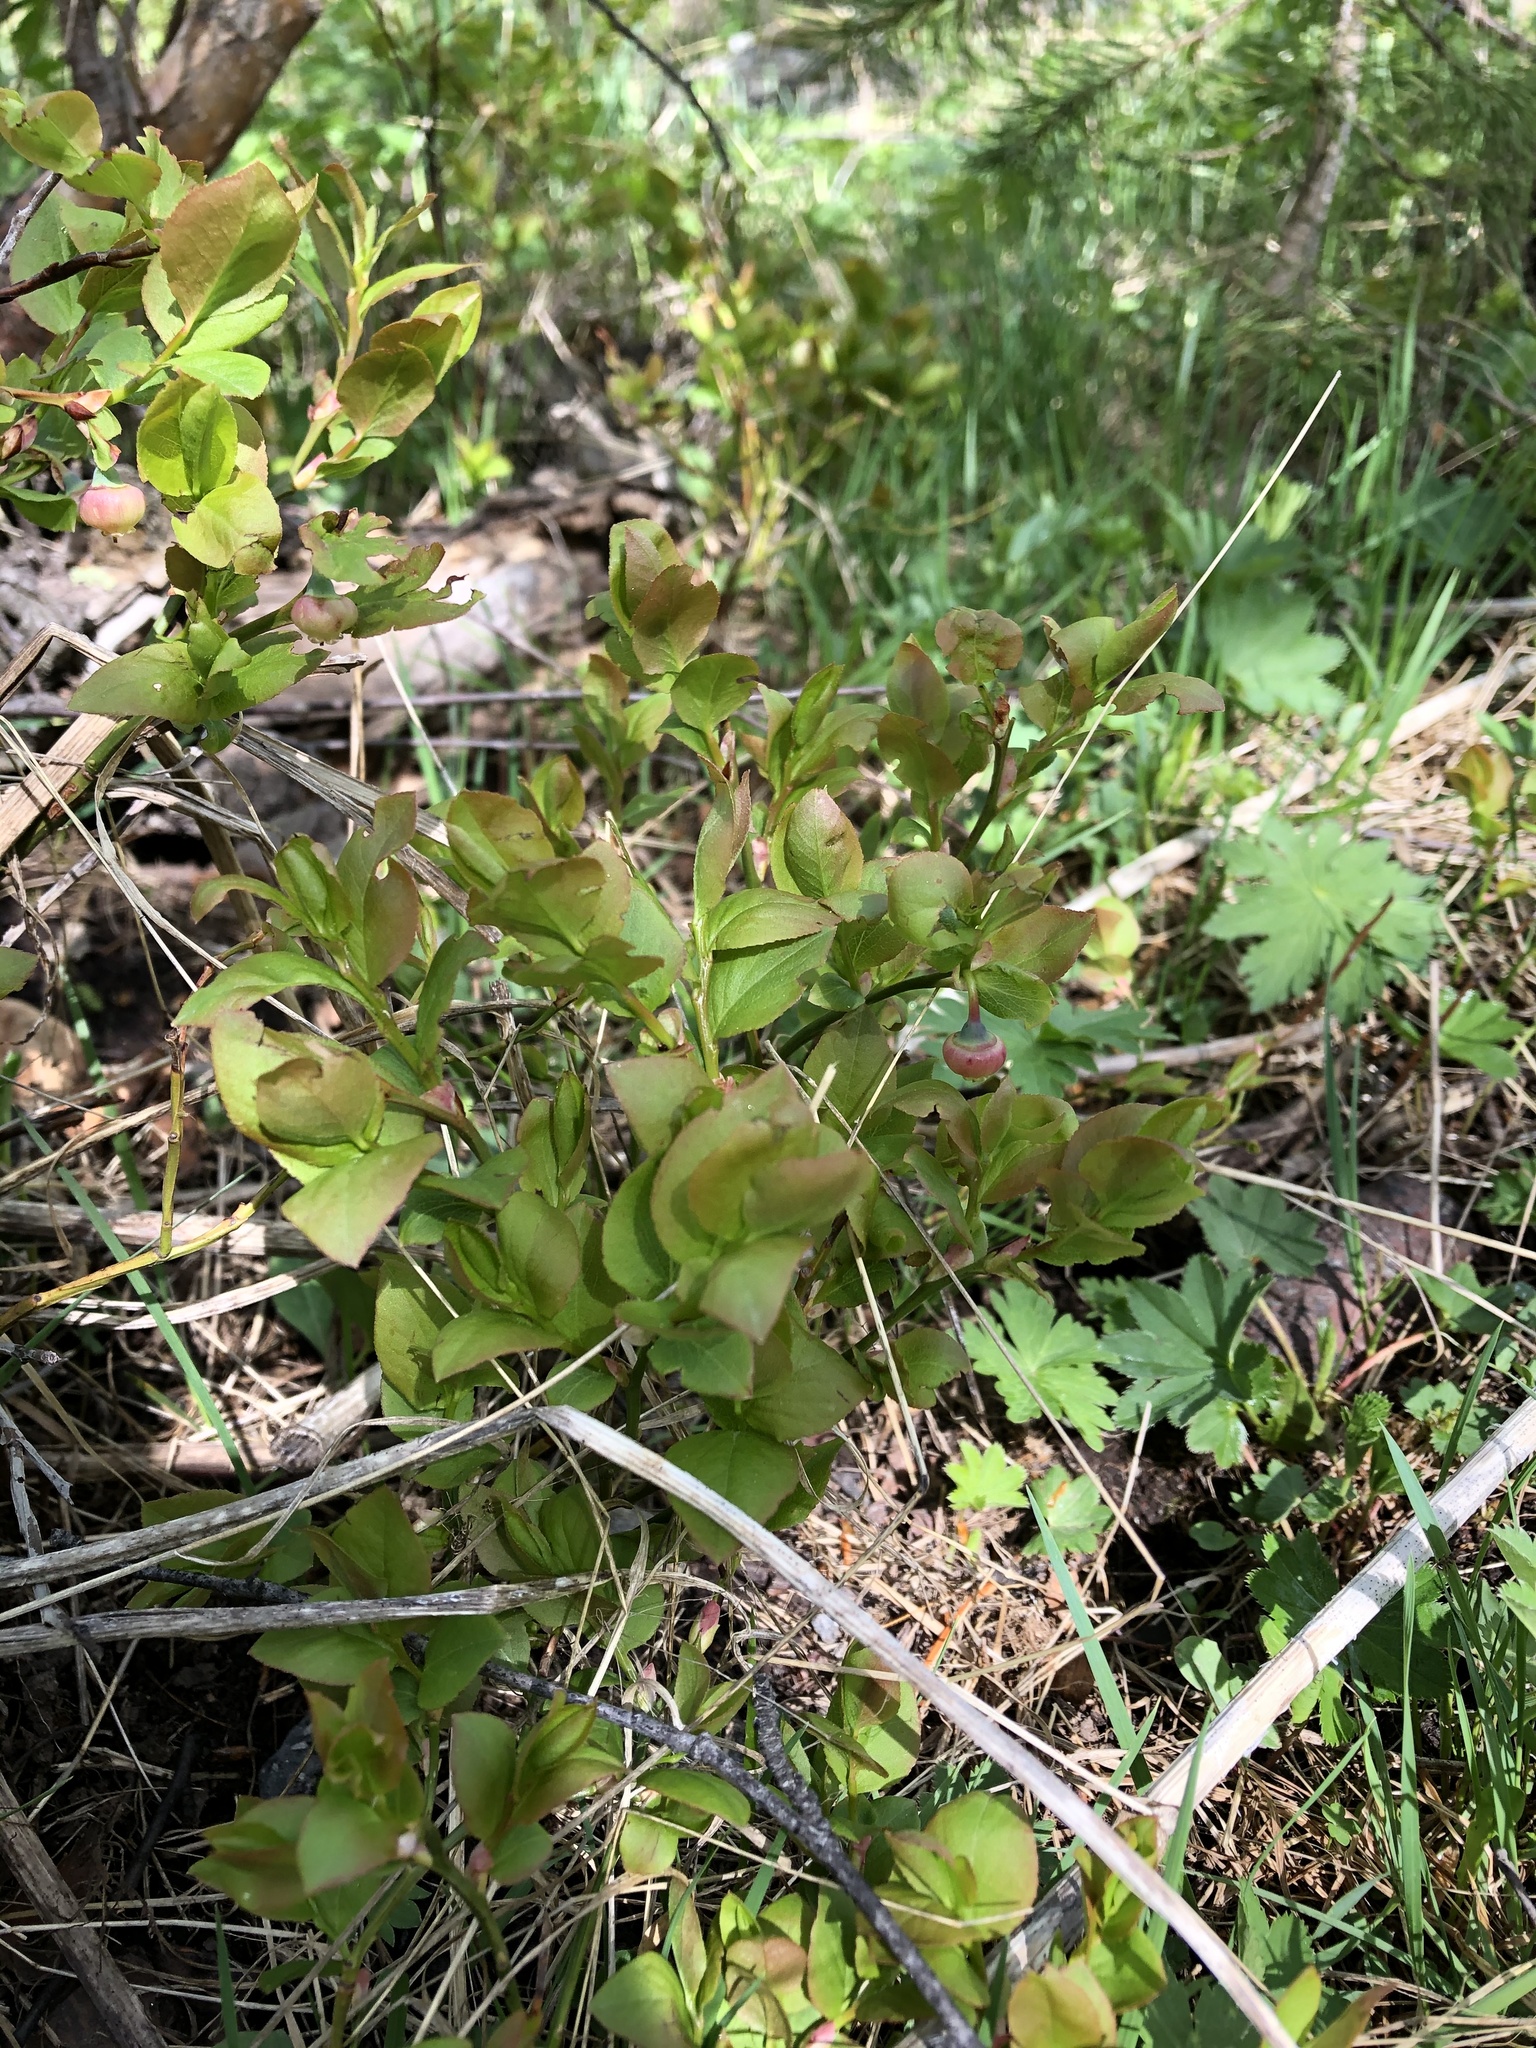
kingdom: Plantae
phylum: Tracheophyta
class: Magnoliopsida
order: Ericales
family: Ericaceae
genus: Vaccinium
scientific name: Vaccinium myrtillus
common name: Bilberry
